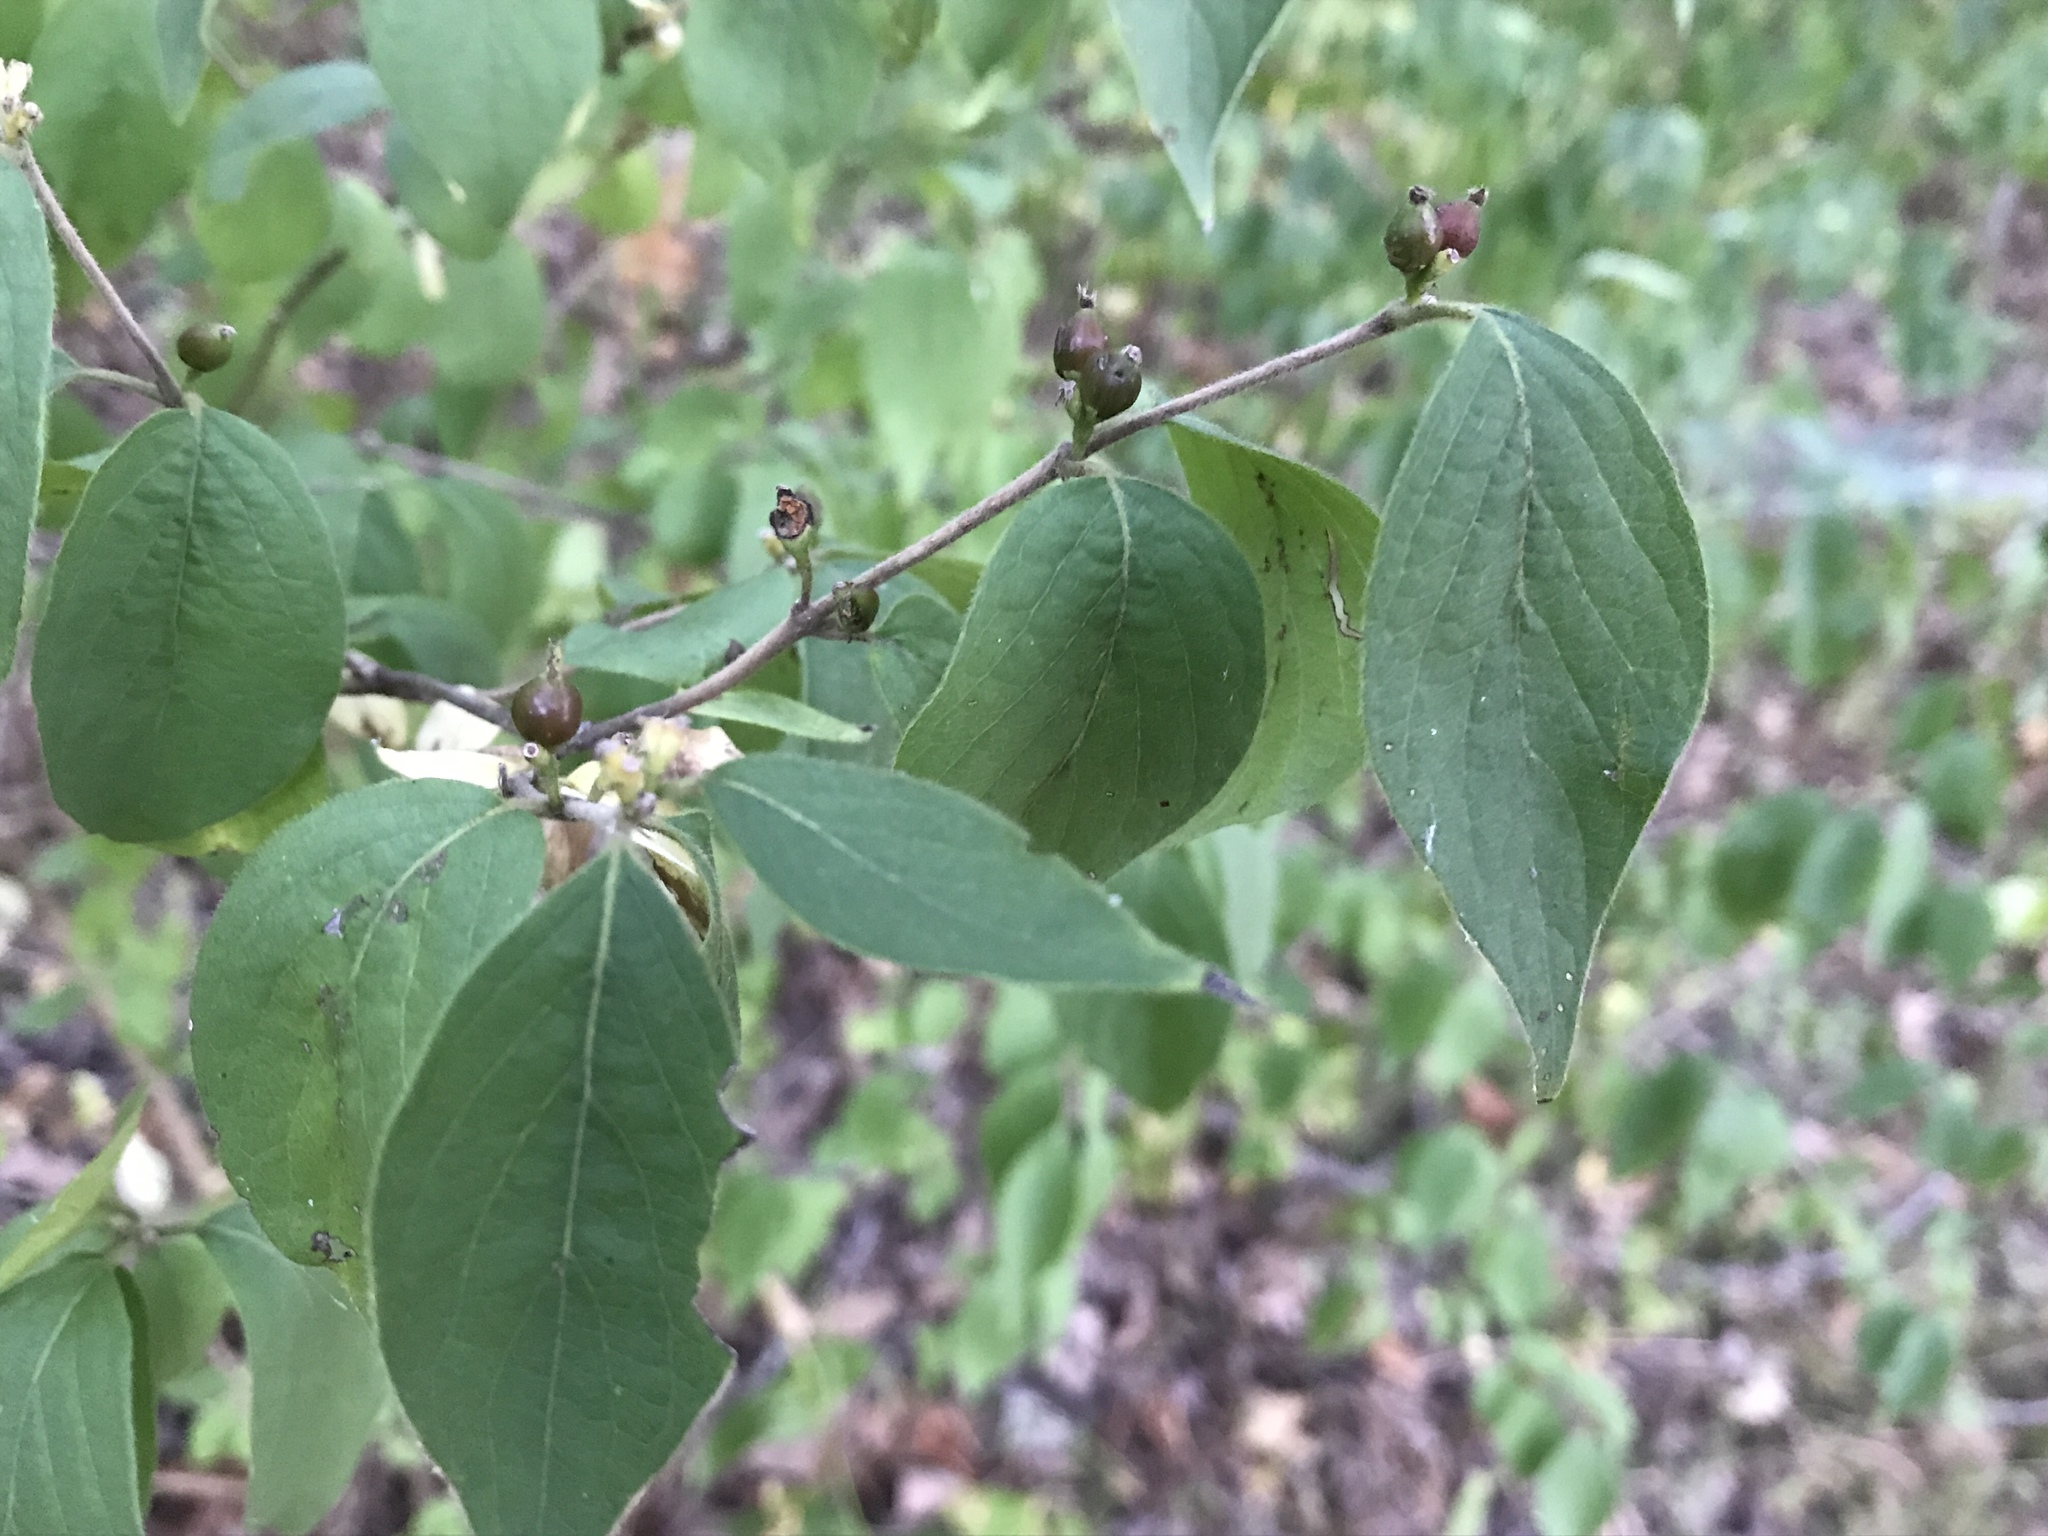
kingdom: Plantae
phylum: Tracheophyta
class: Magnoliopsida
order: Dipsacales
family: Caprifoliaceae
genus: Lonicera
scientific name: Lonicera maackii
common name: Amur honeysuckle
